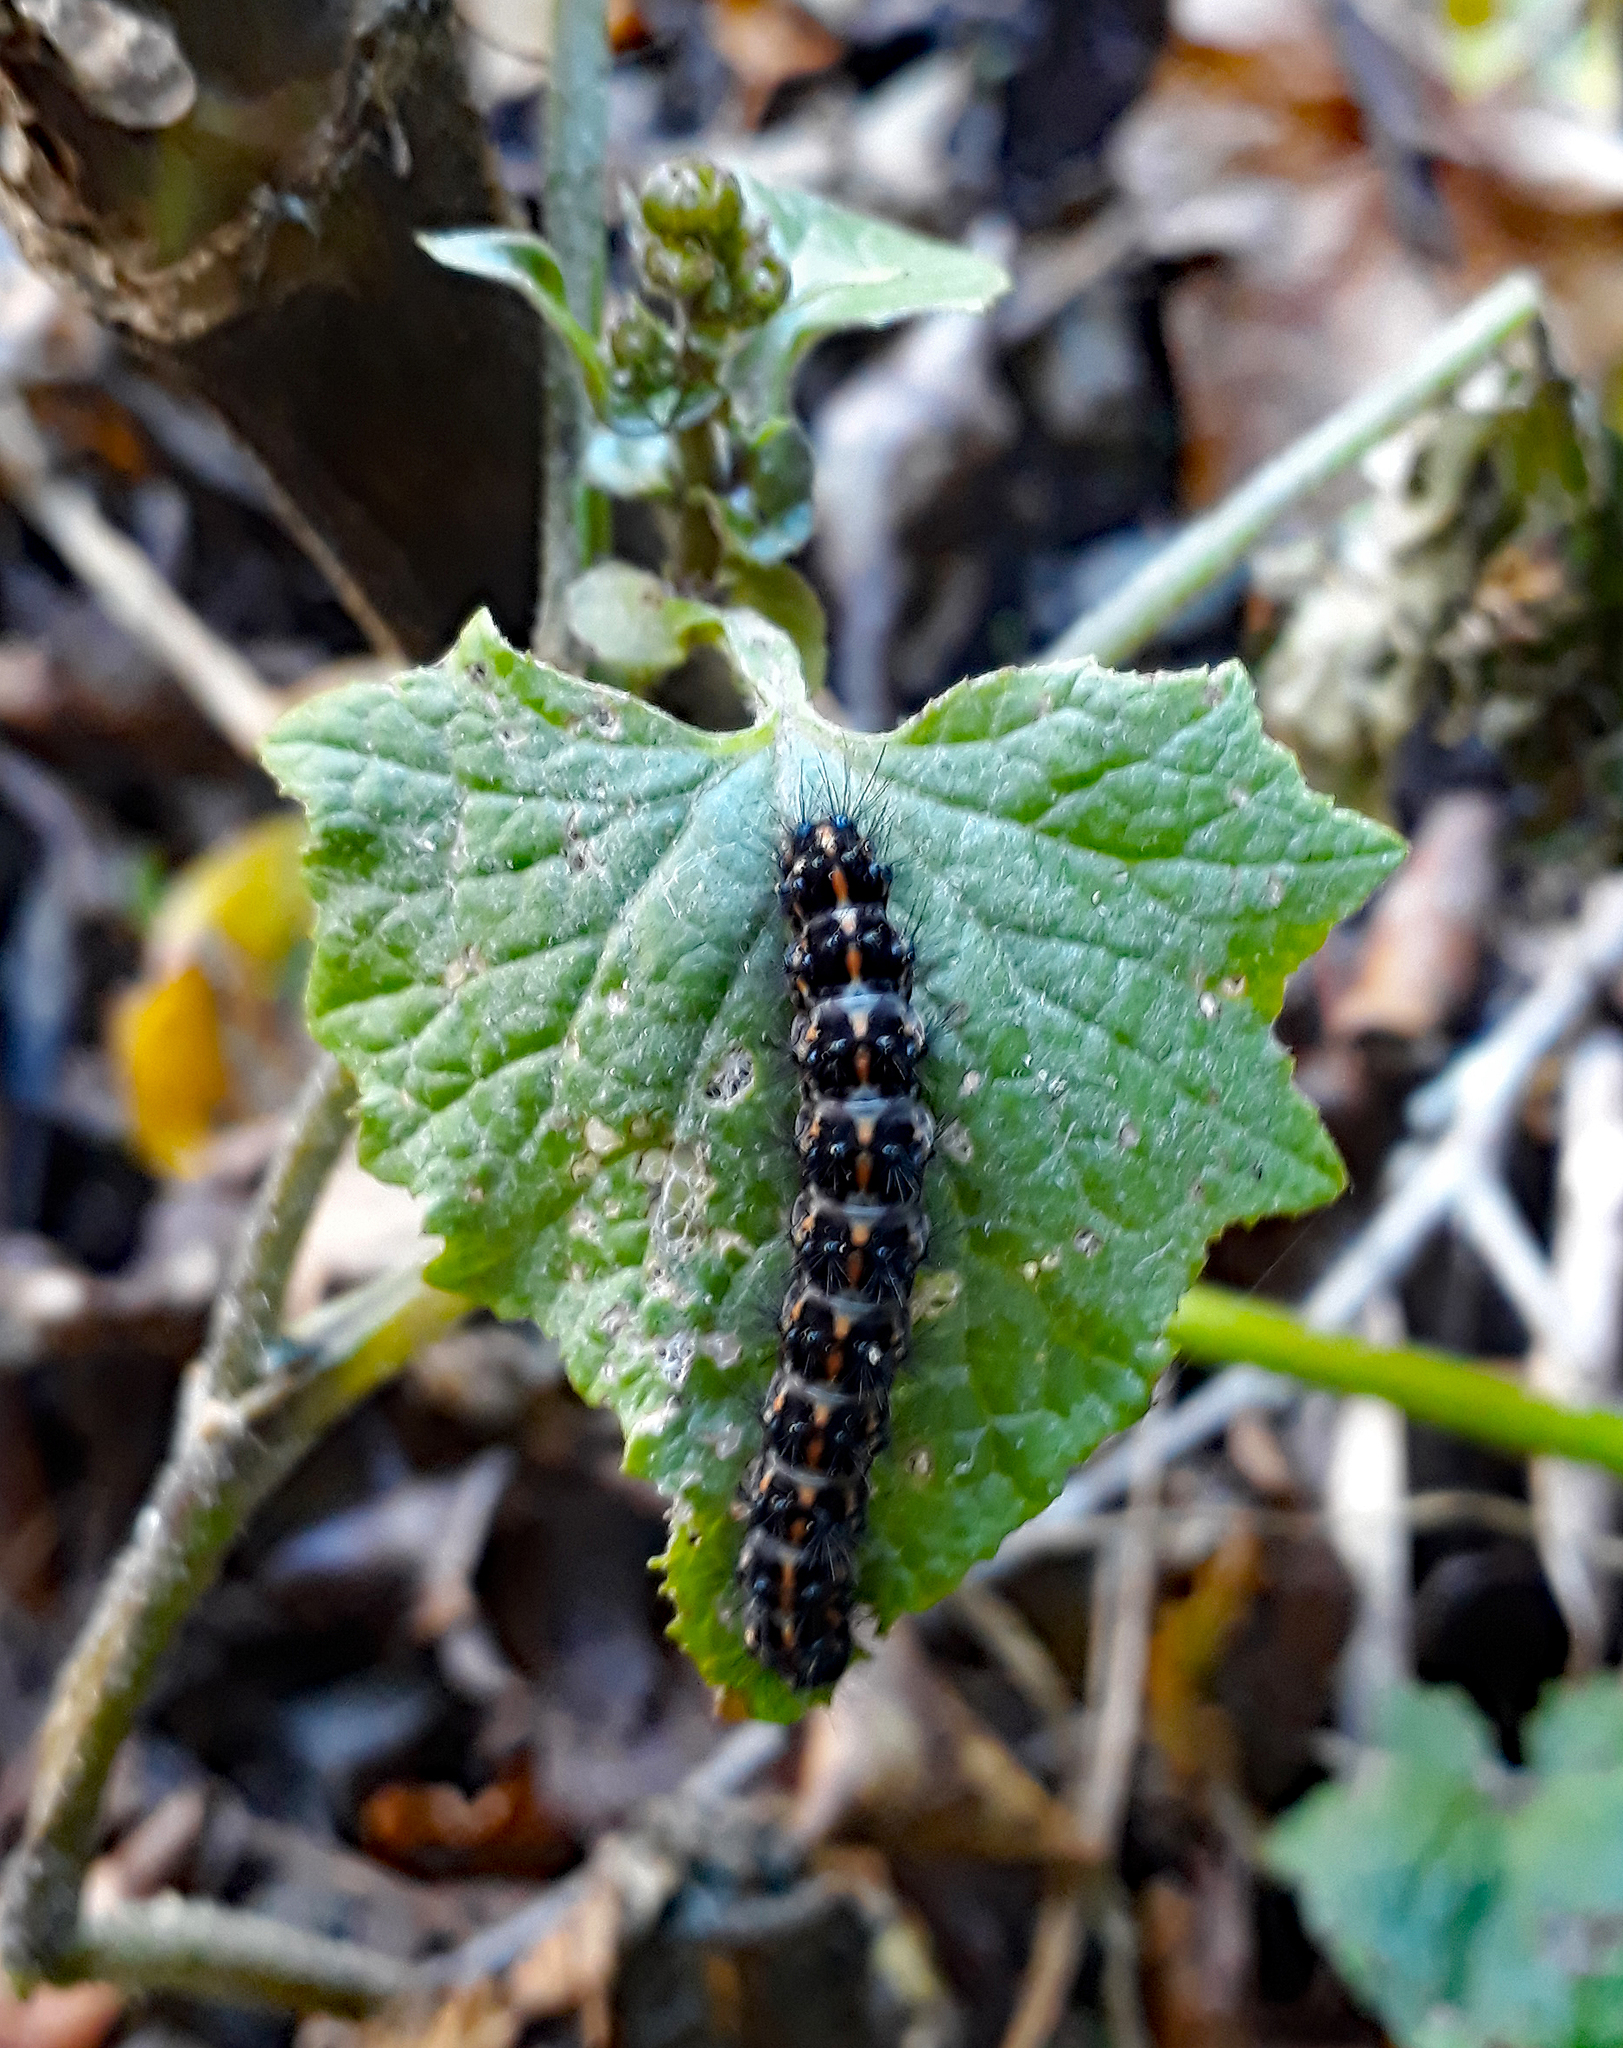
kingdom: Animalia
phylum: Arthropoda
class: Insecta
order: Lepidoptera
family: Erebidae
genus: Nyctemera
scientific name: Nyctemera annulatum
